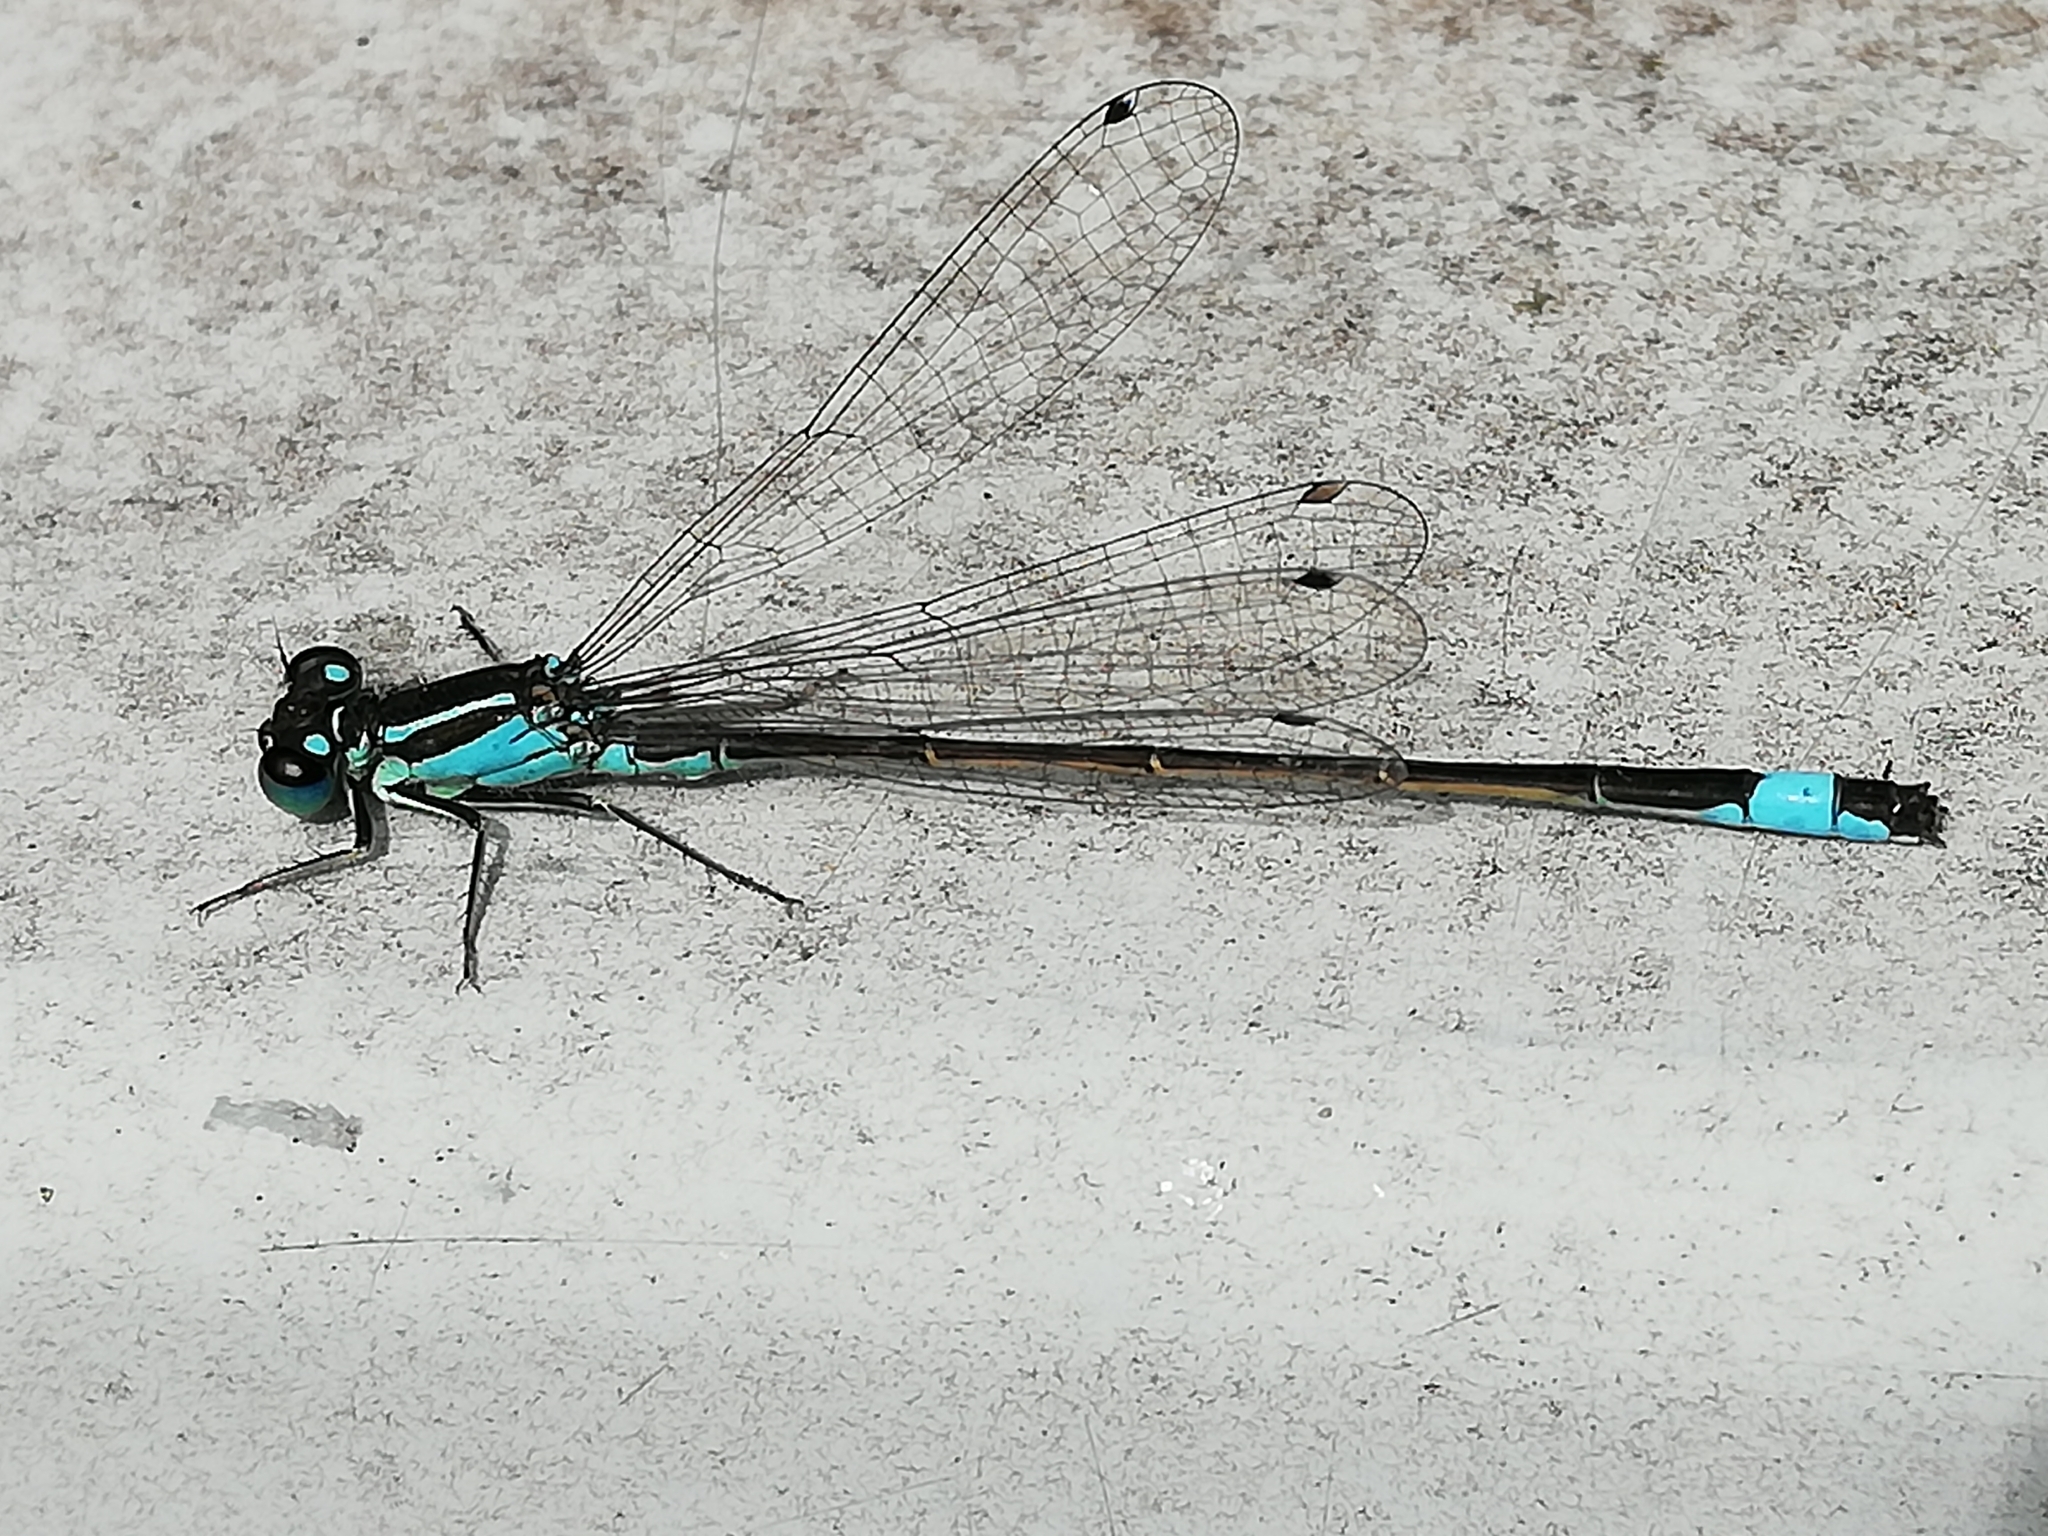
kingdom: Animalia
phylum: Arthropoda
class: Insecta
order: Odonata
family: Coenagrionidae
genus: Ischnura
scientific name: Ischnura elegans
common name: Blue-tailed damselfly
